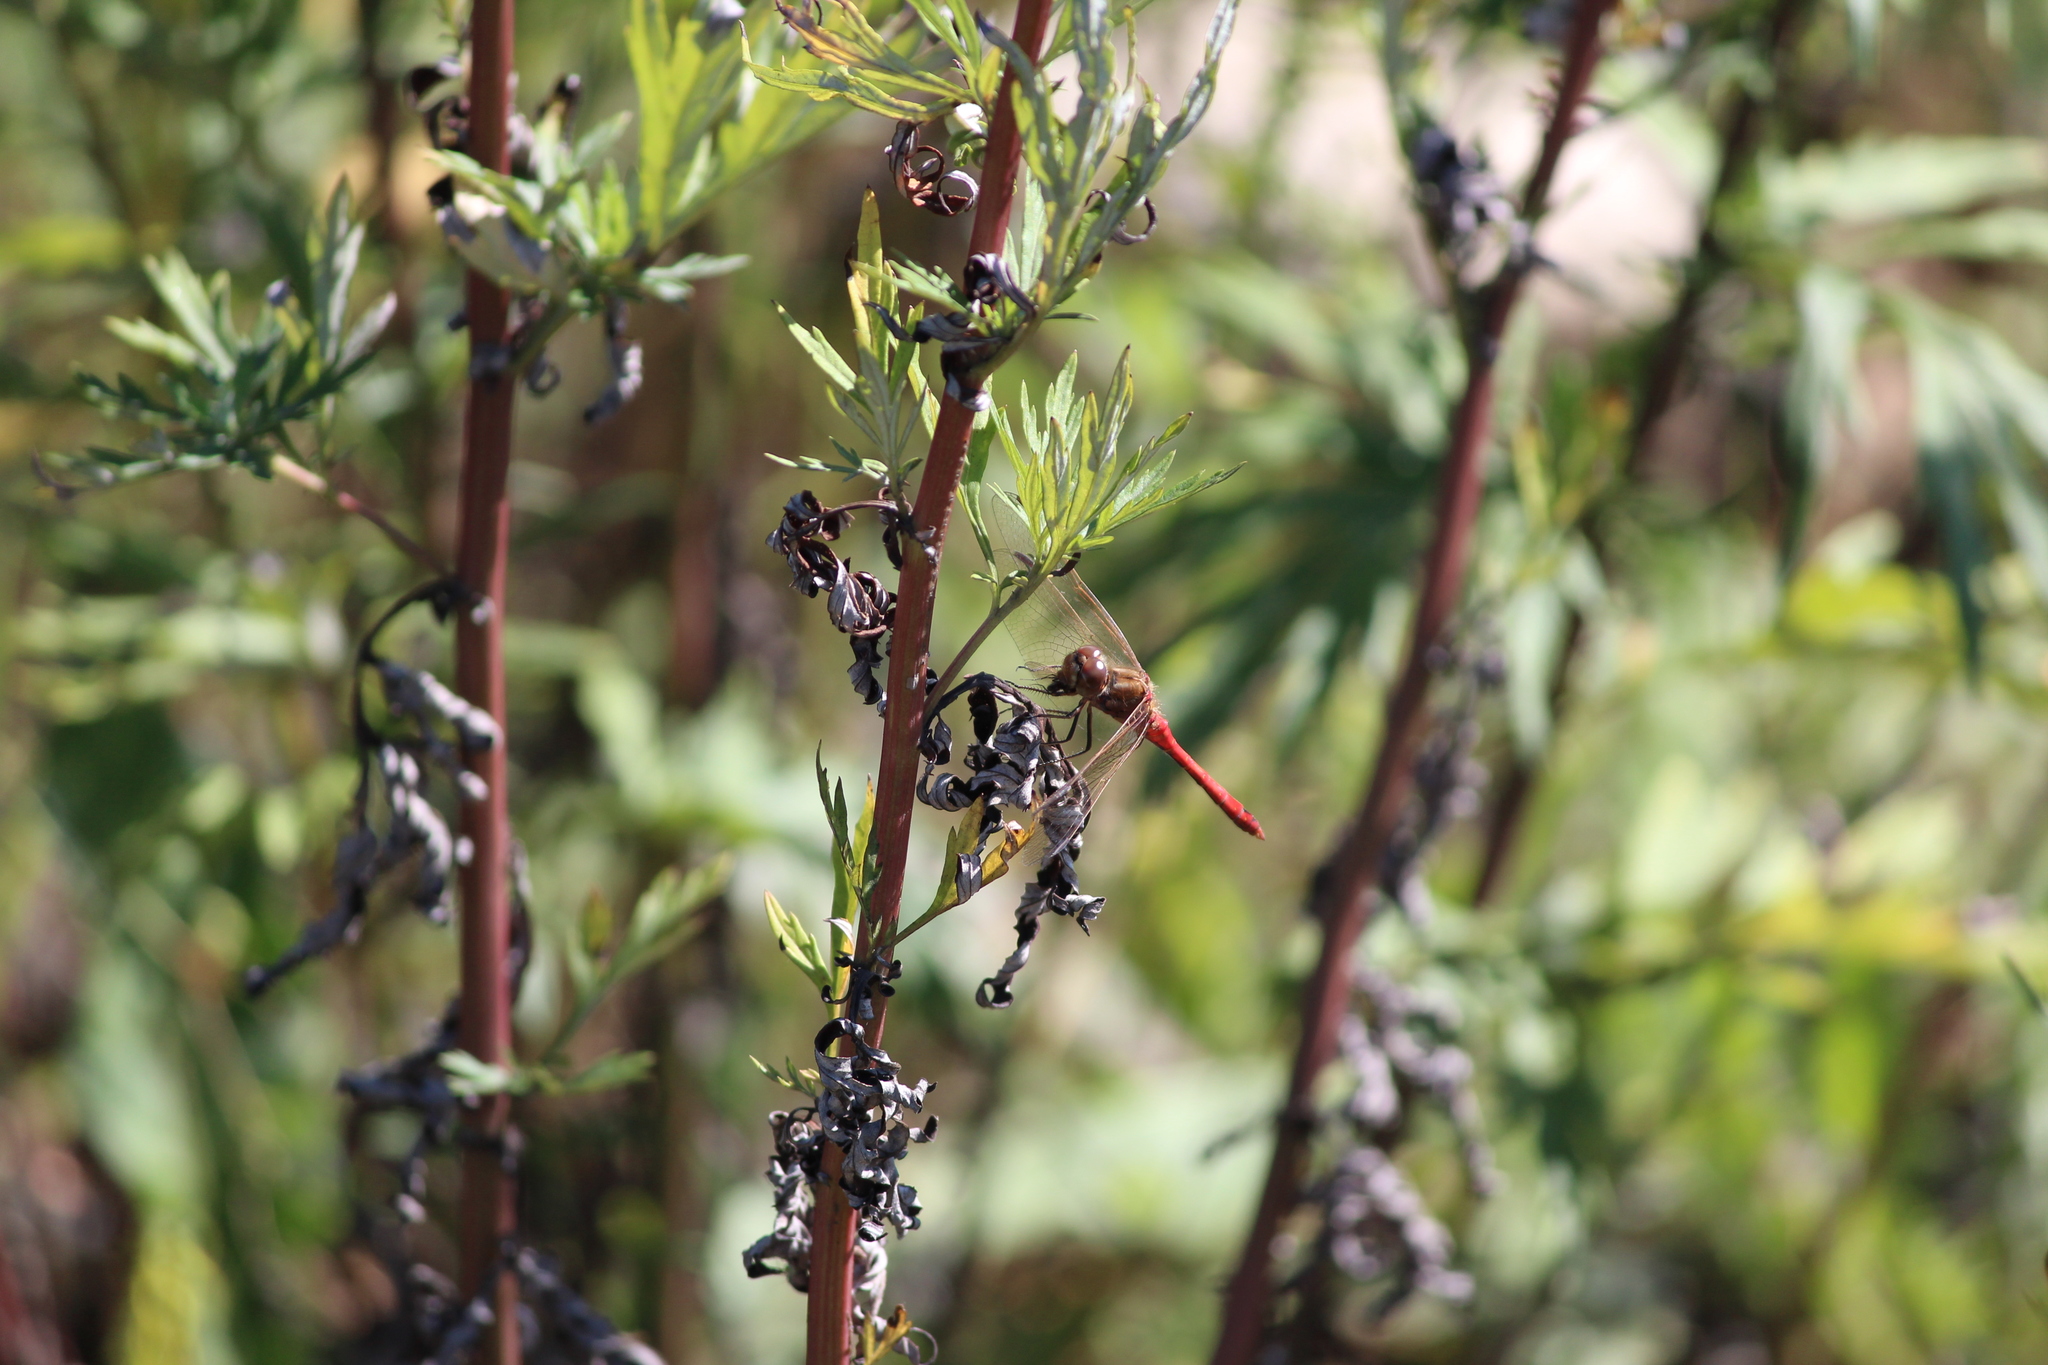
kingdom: Animalia
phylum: Arthropoda
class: Insecta
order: Odonata
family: Libellulidae
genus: Sympetrum
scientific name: Sympetrum vulgatum
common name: Vagrant darter
